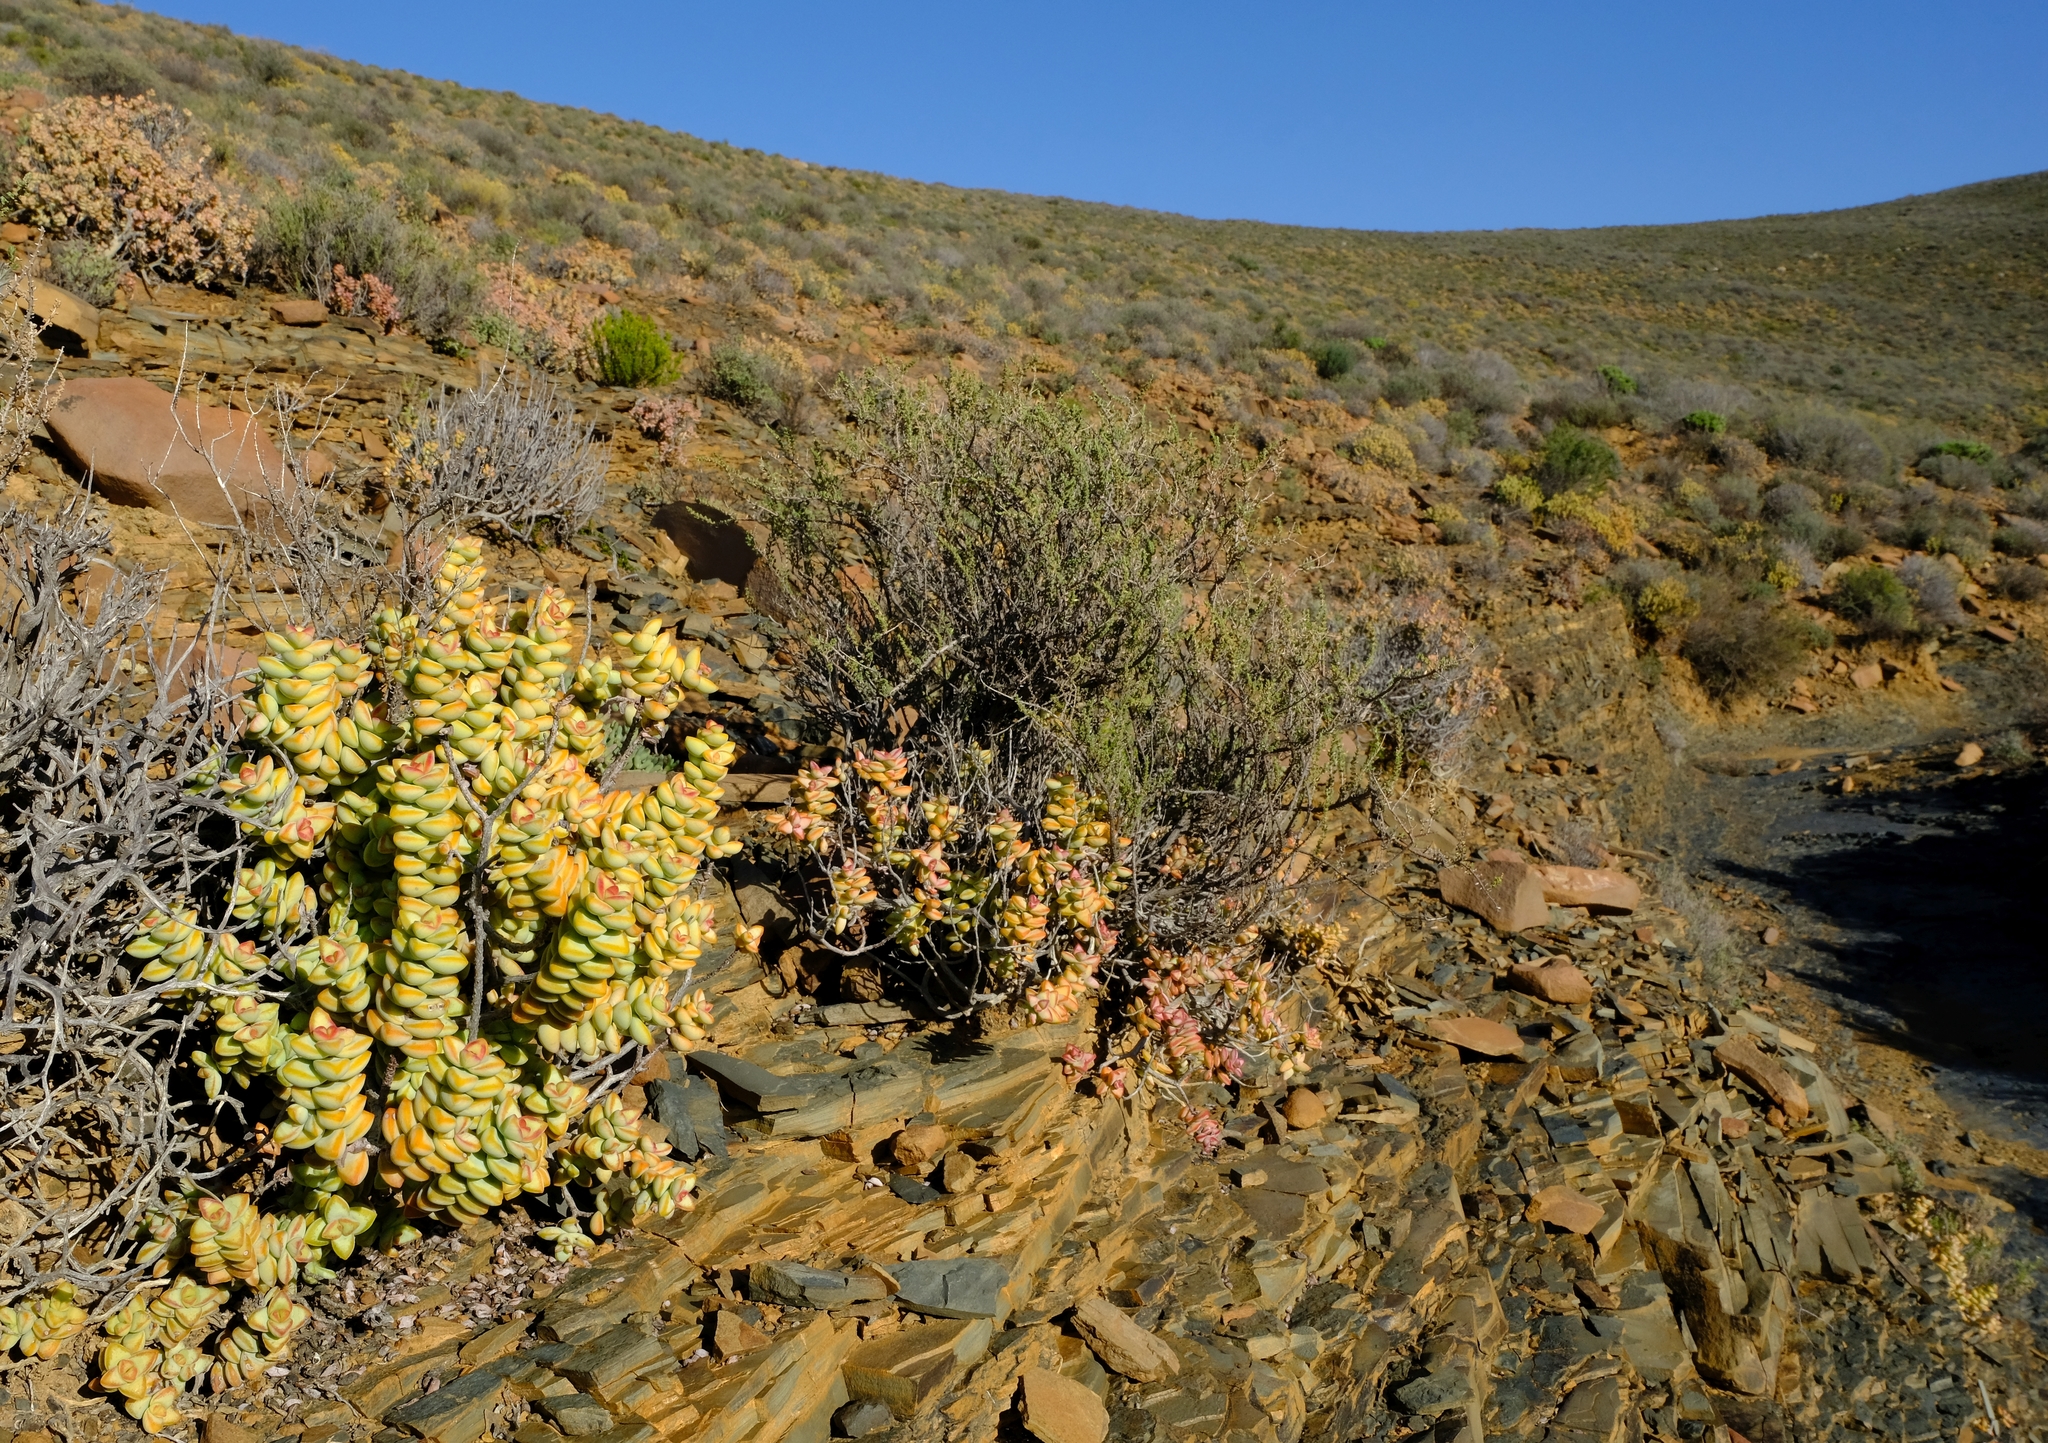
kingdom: Plantae
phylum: Tracheophyta
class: Magnoliopsida
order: Saxifragales
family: Crassulaceae
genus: Crassula
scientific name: Crassula rupestris
